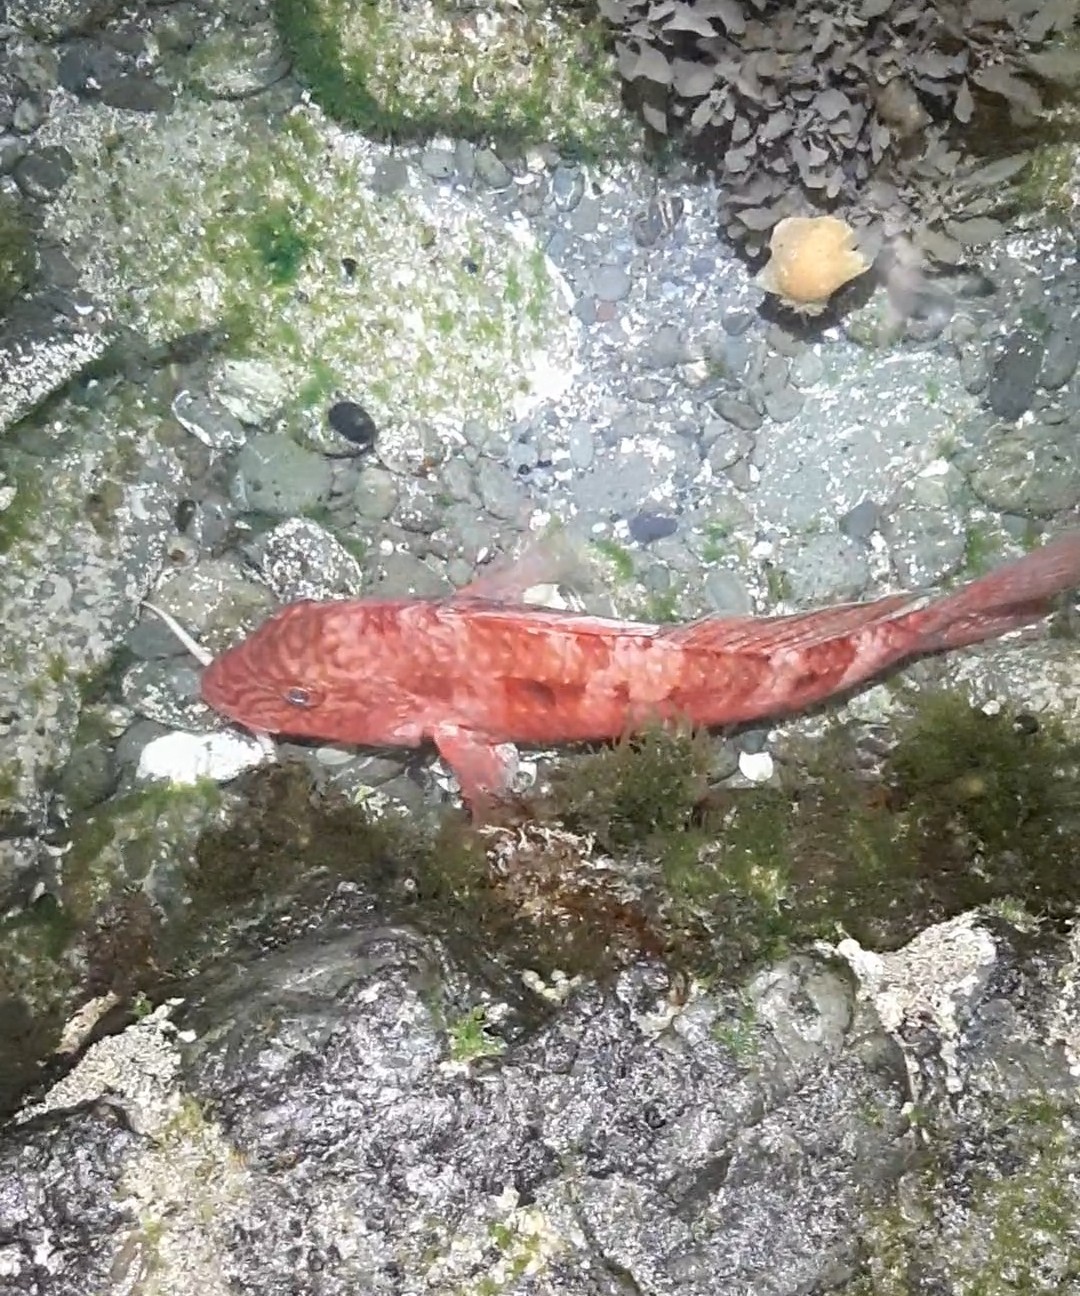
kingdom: Animalia
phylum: Chordata
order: Perciformes
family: Mullidae
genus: Upeneichthys
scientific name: Upeneichthys lineatus
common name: Red mullet
